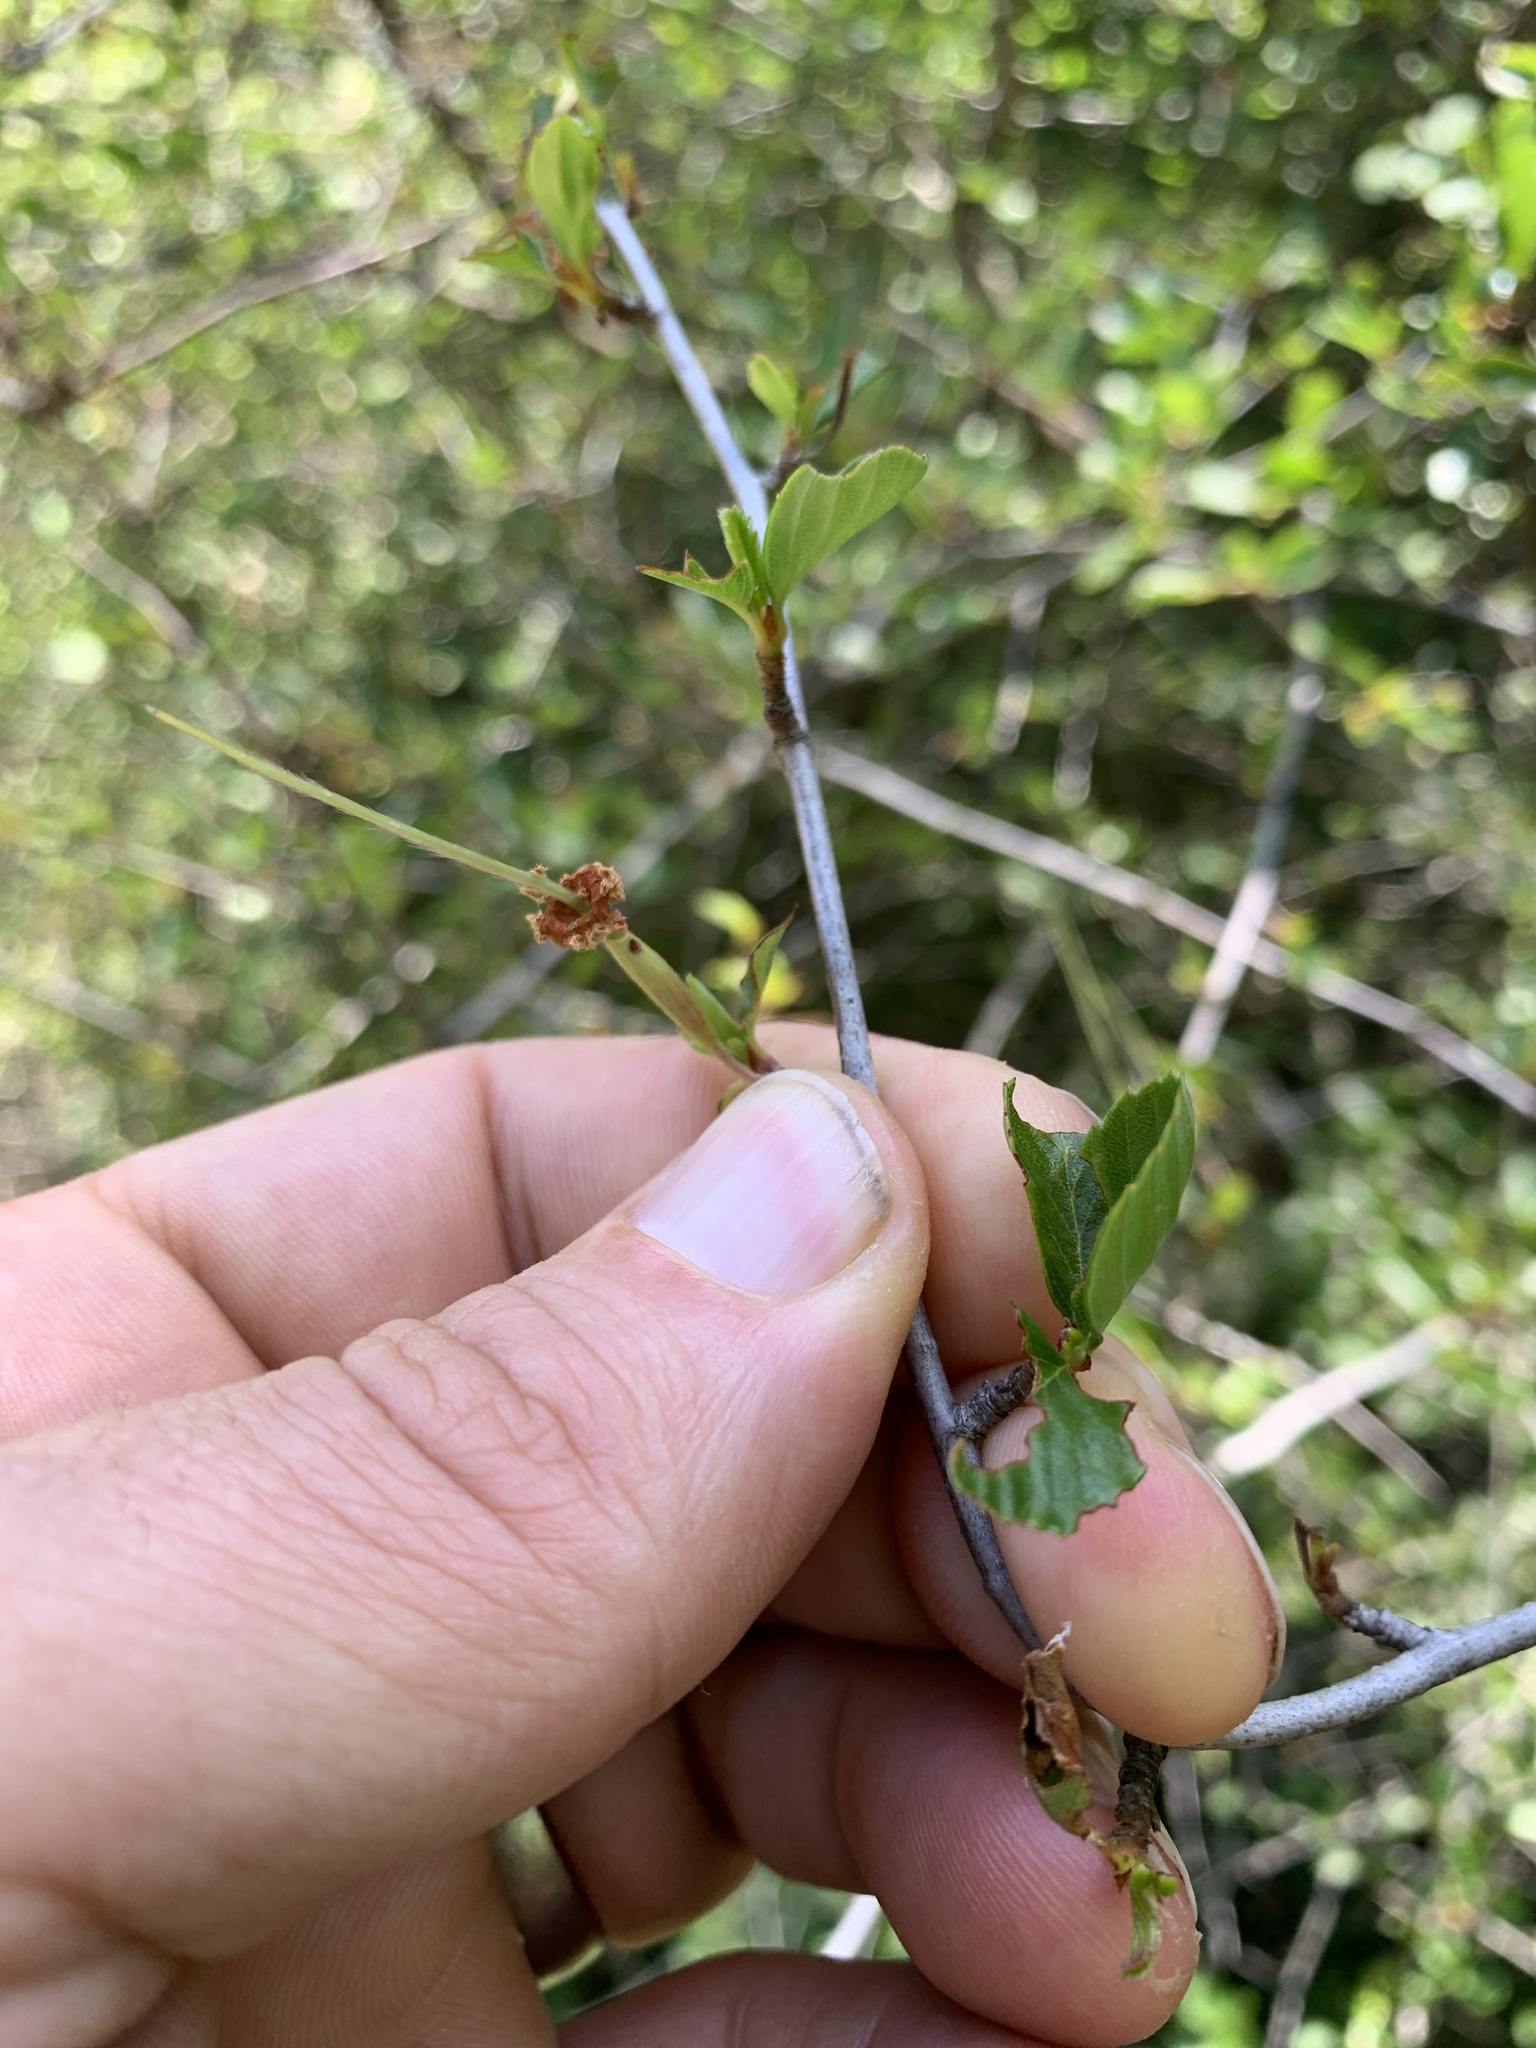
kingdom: Plantae
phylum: Tracheophyta
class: Magnoliopsida
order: Rosales
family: Rosaceae
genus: Cercocarpus
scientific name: Cercocarpus betuloides
